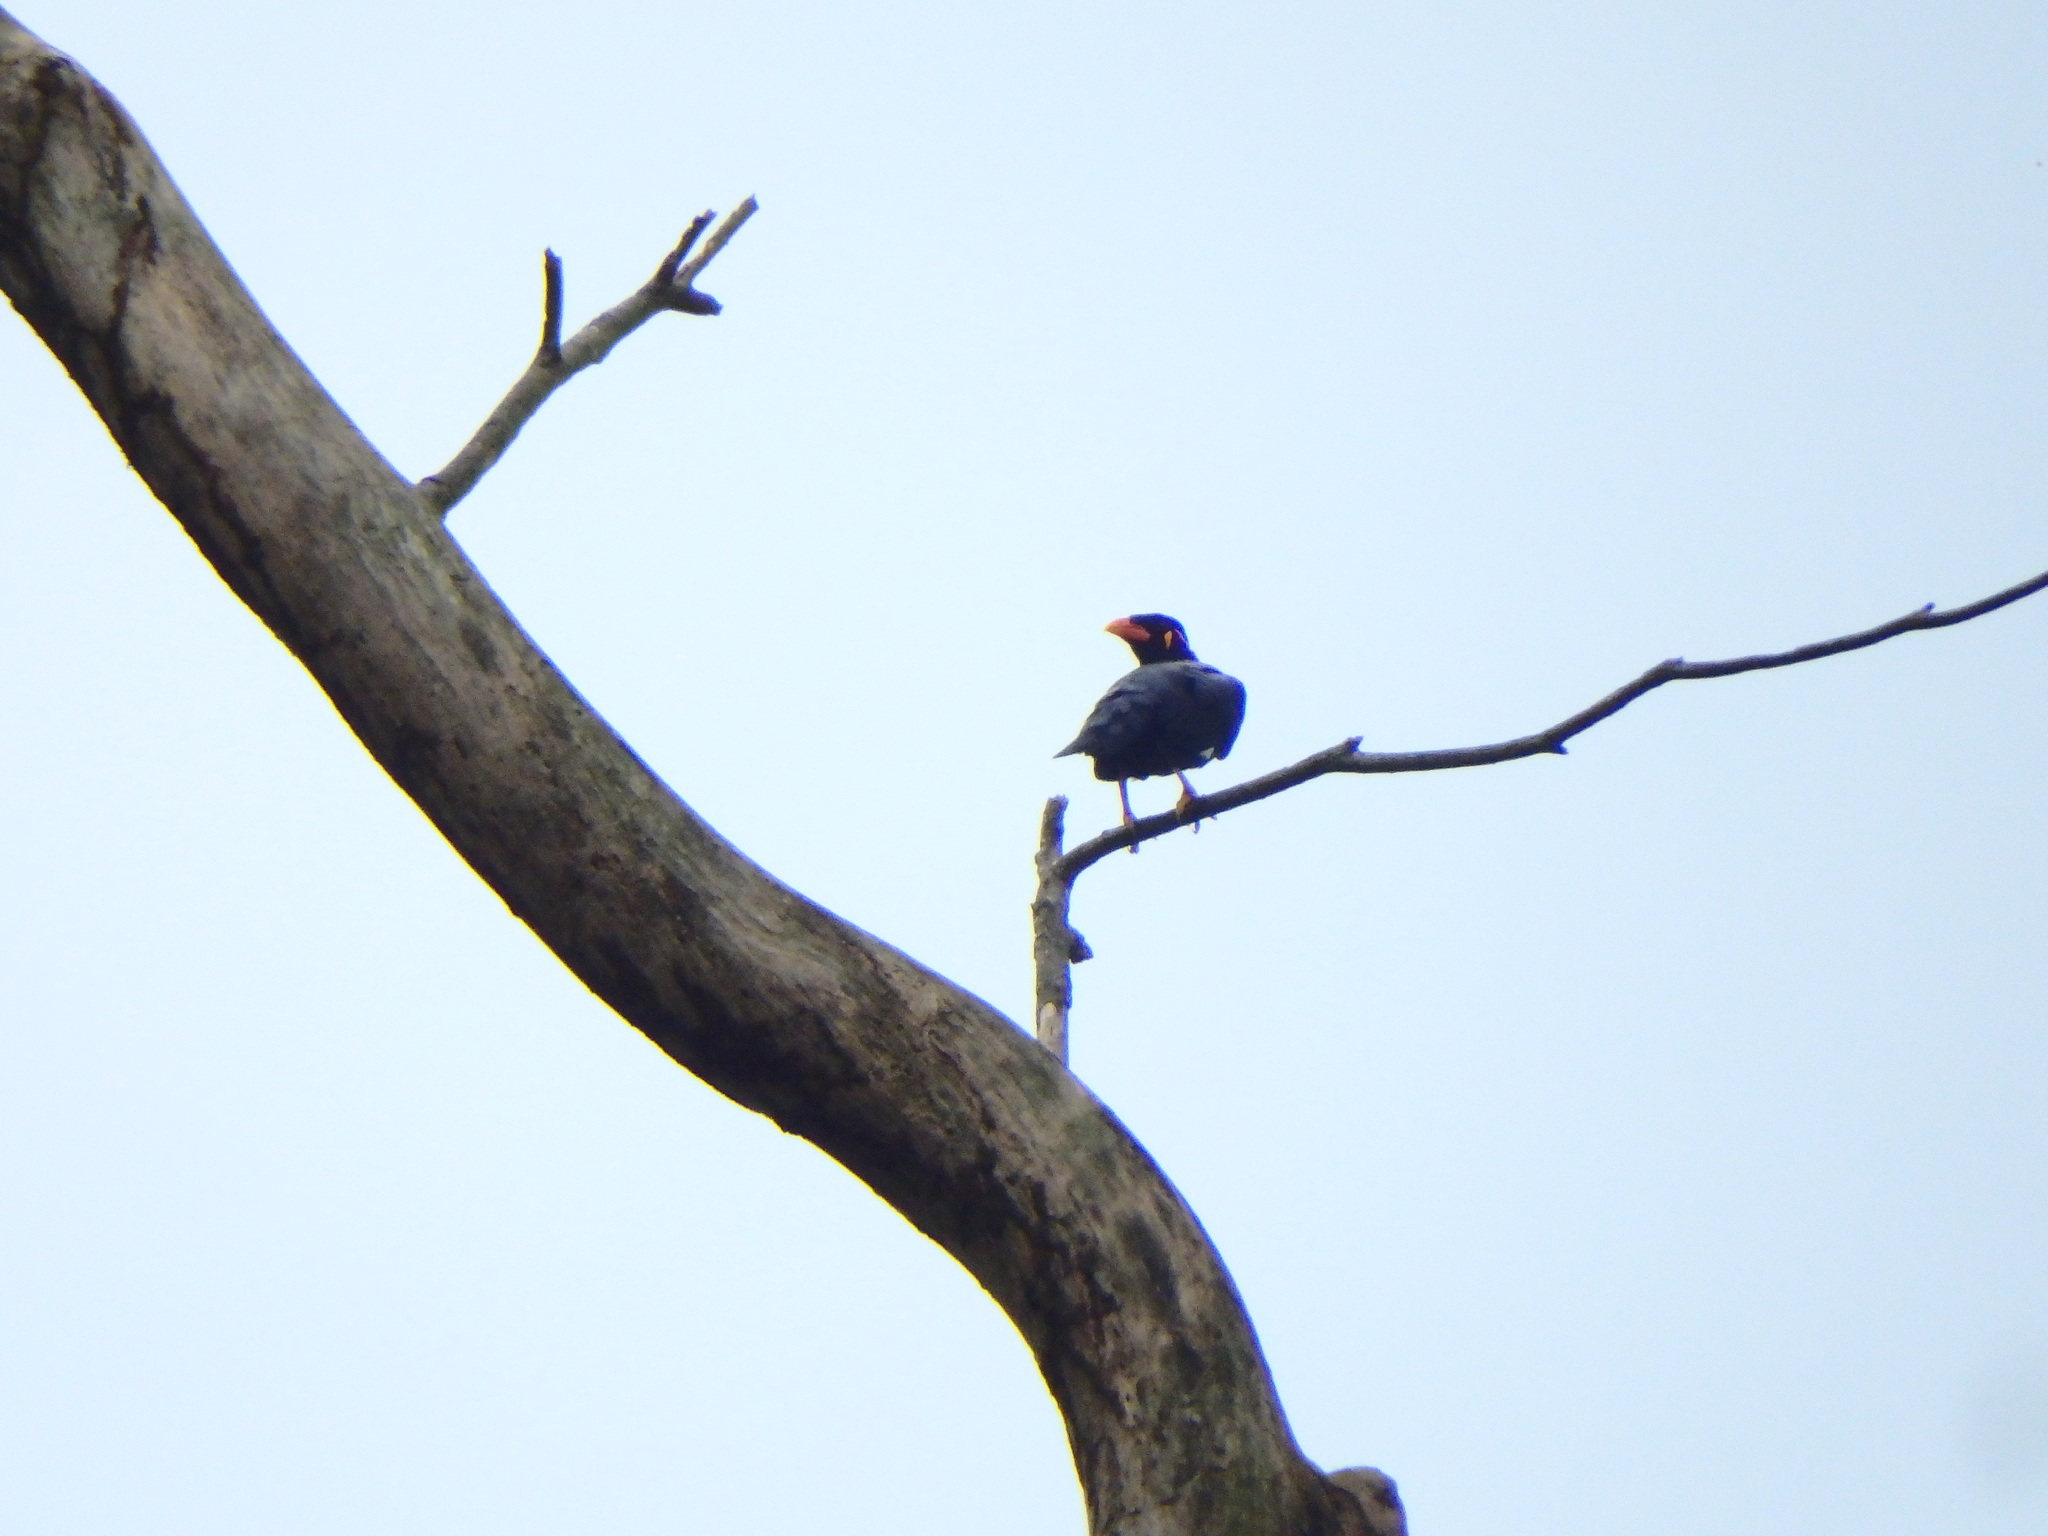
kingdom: Animalia
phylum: Chordata
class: Aves
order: Passeriformes
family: Sturnidae
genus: Gracula
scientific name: Gracula religiosa
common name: Common hill myna
